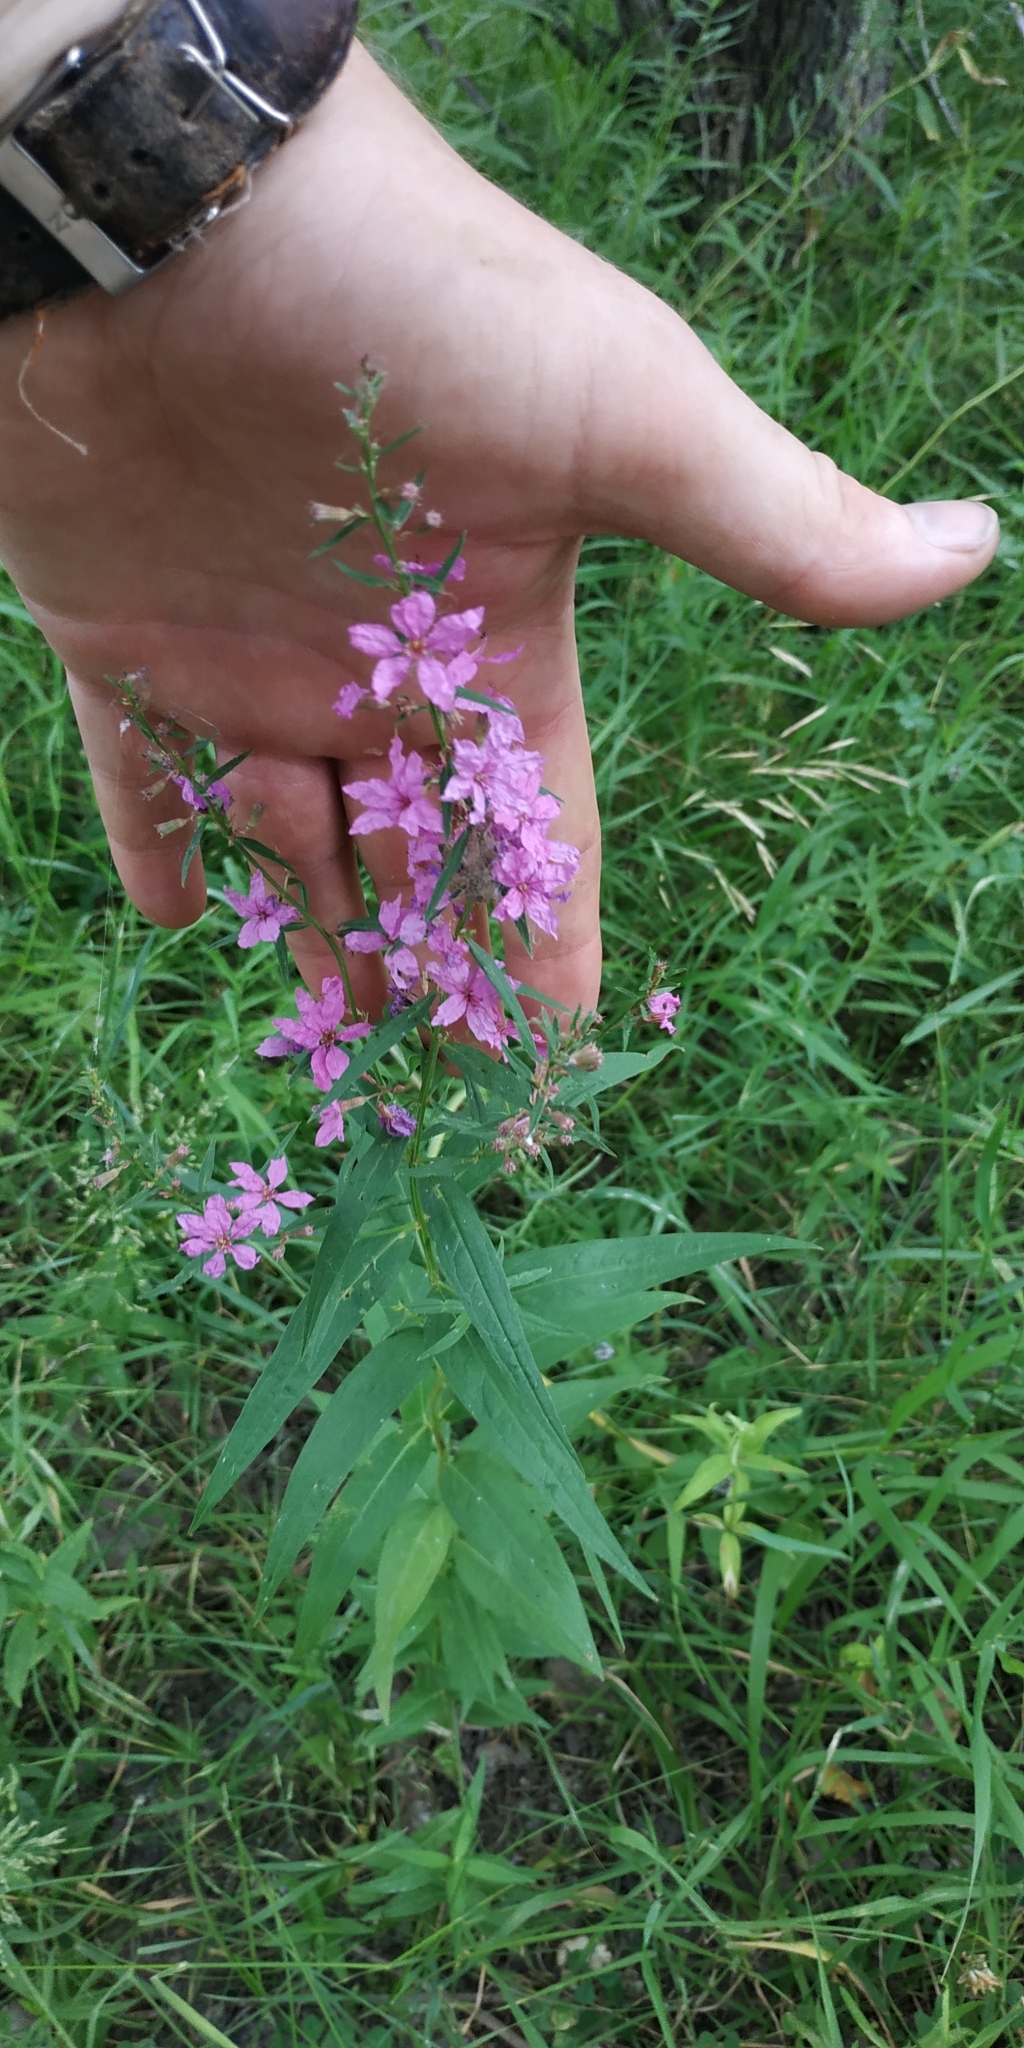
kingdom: Plantae
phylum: Tracheophyta
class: Magnoliopsida
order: Myrtales
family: Lythraceae
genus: Lythrum
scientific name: Lythrum salicaria
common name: Purple loosestrife
